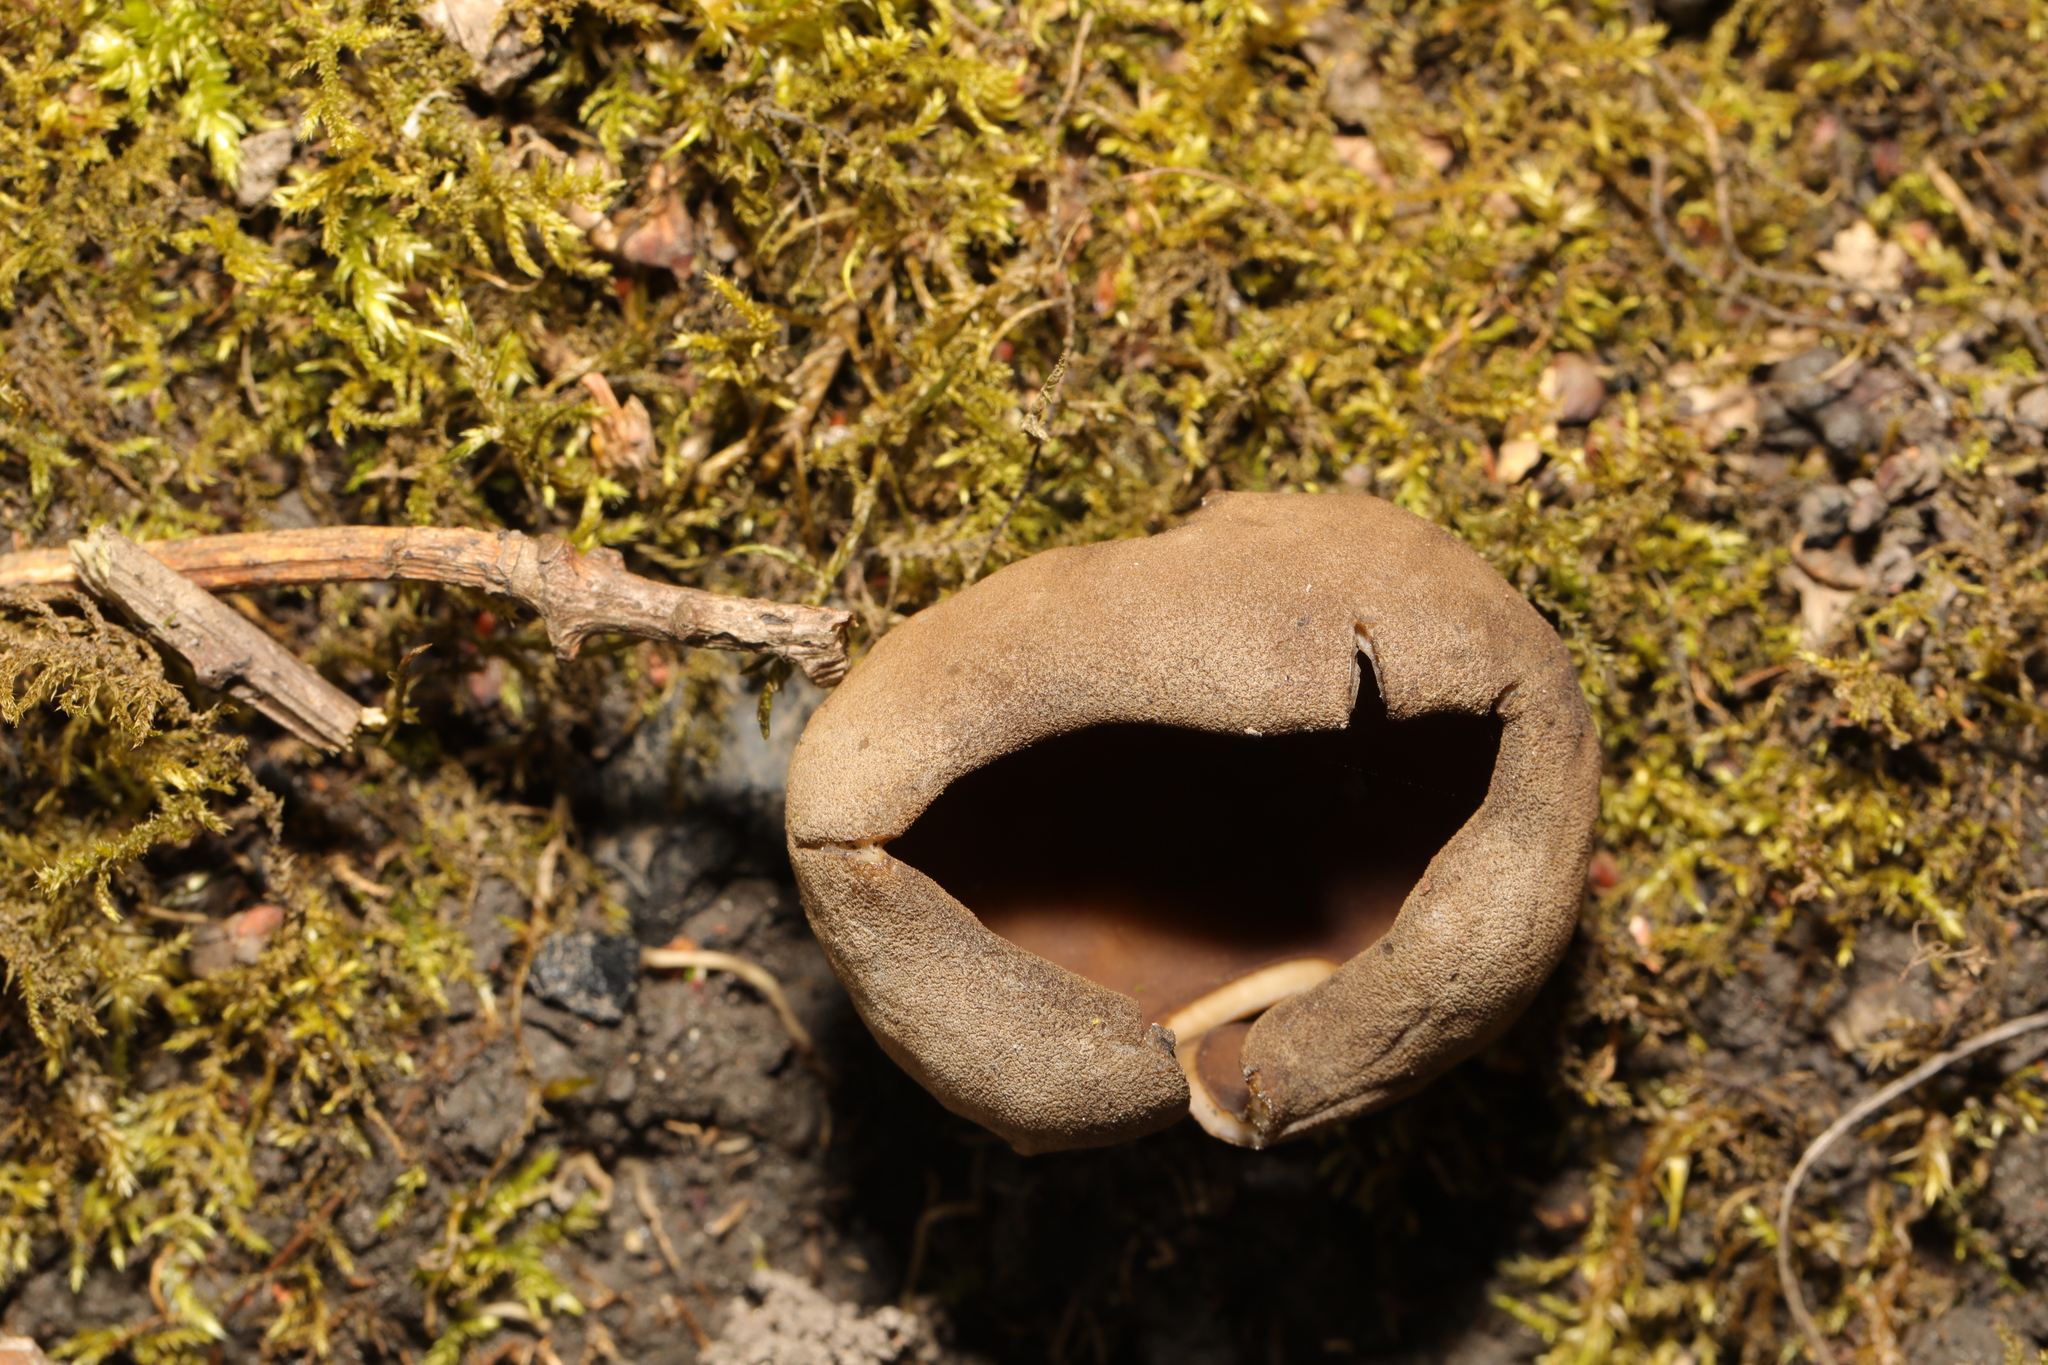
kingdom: Fungi
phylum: Ascomycota
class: Pezizomycetes
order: Pezizales
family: Morchellaceae
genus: Disciotis
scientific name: Disciotis venosa
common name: Bleach cup
